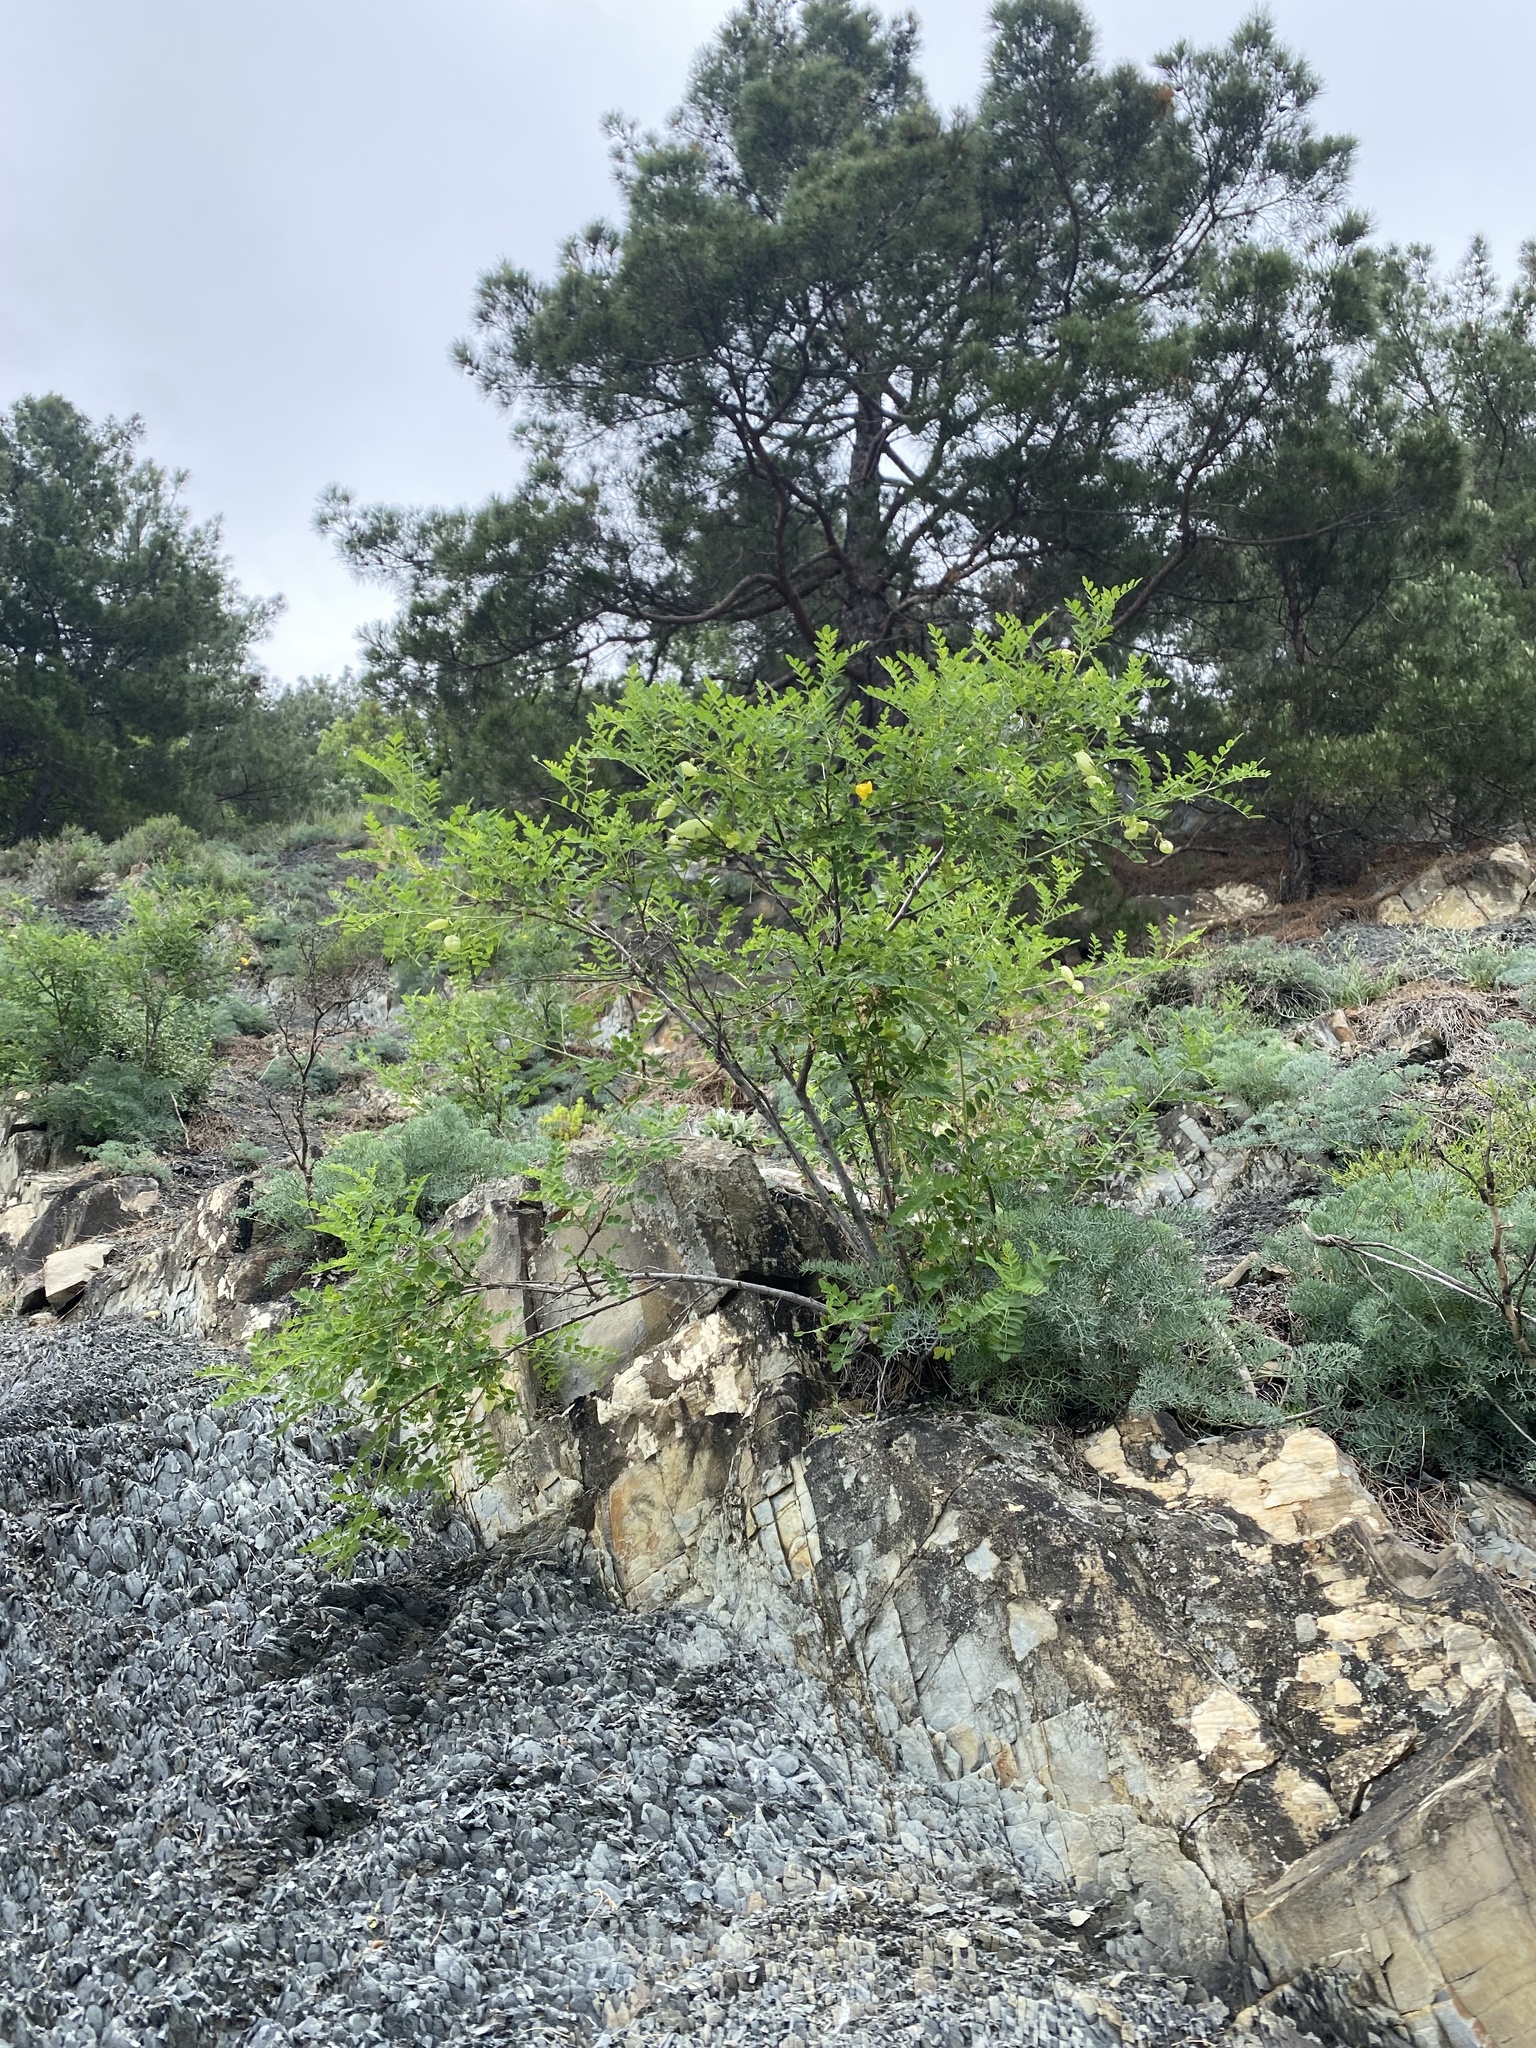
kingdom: Plantae
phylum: Tracheophyta
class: Magnoliopsida
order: Fabales
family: Fabaceae
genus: Colutea
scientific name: Colutea cilicica
